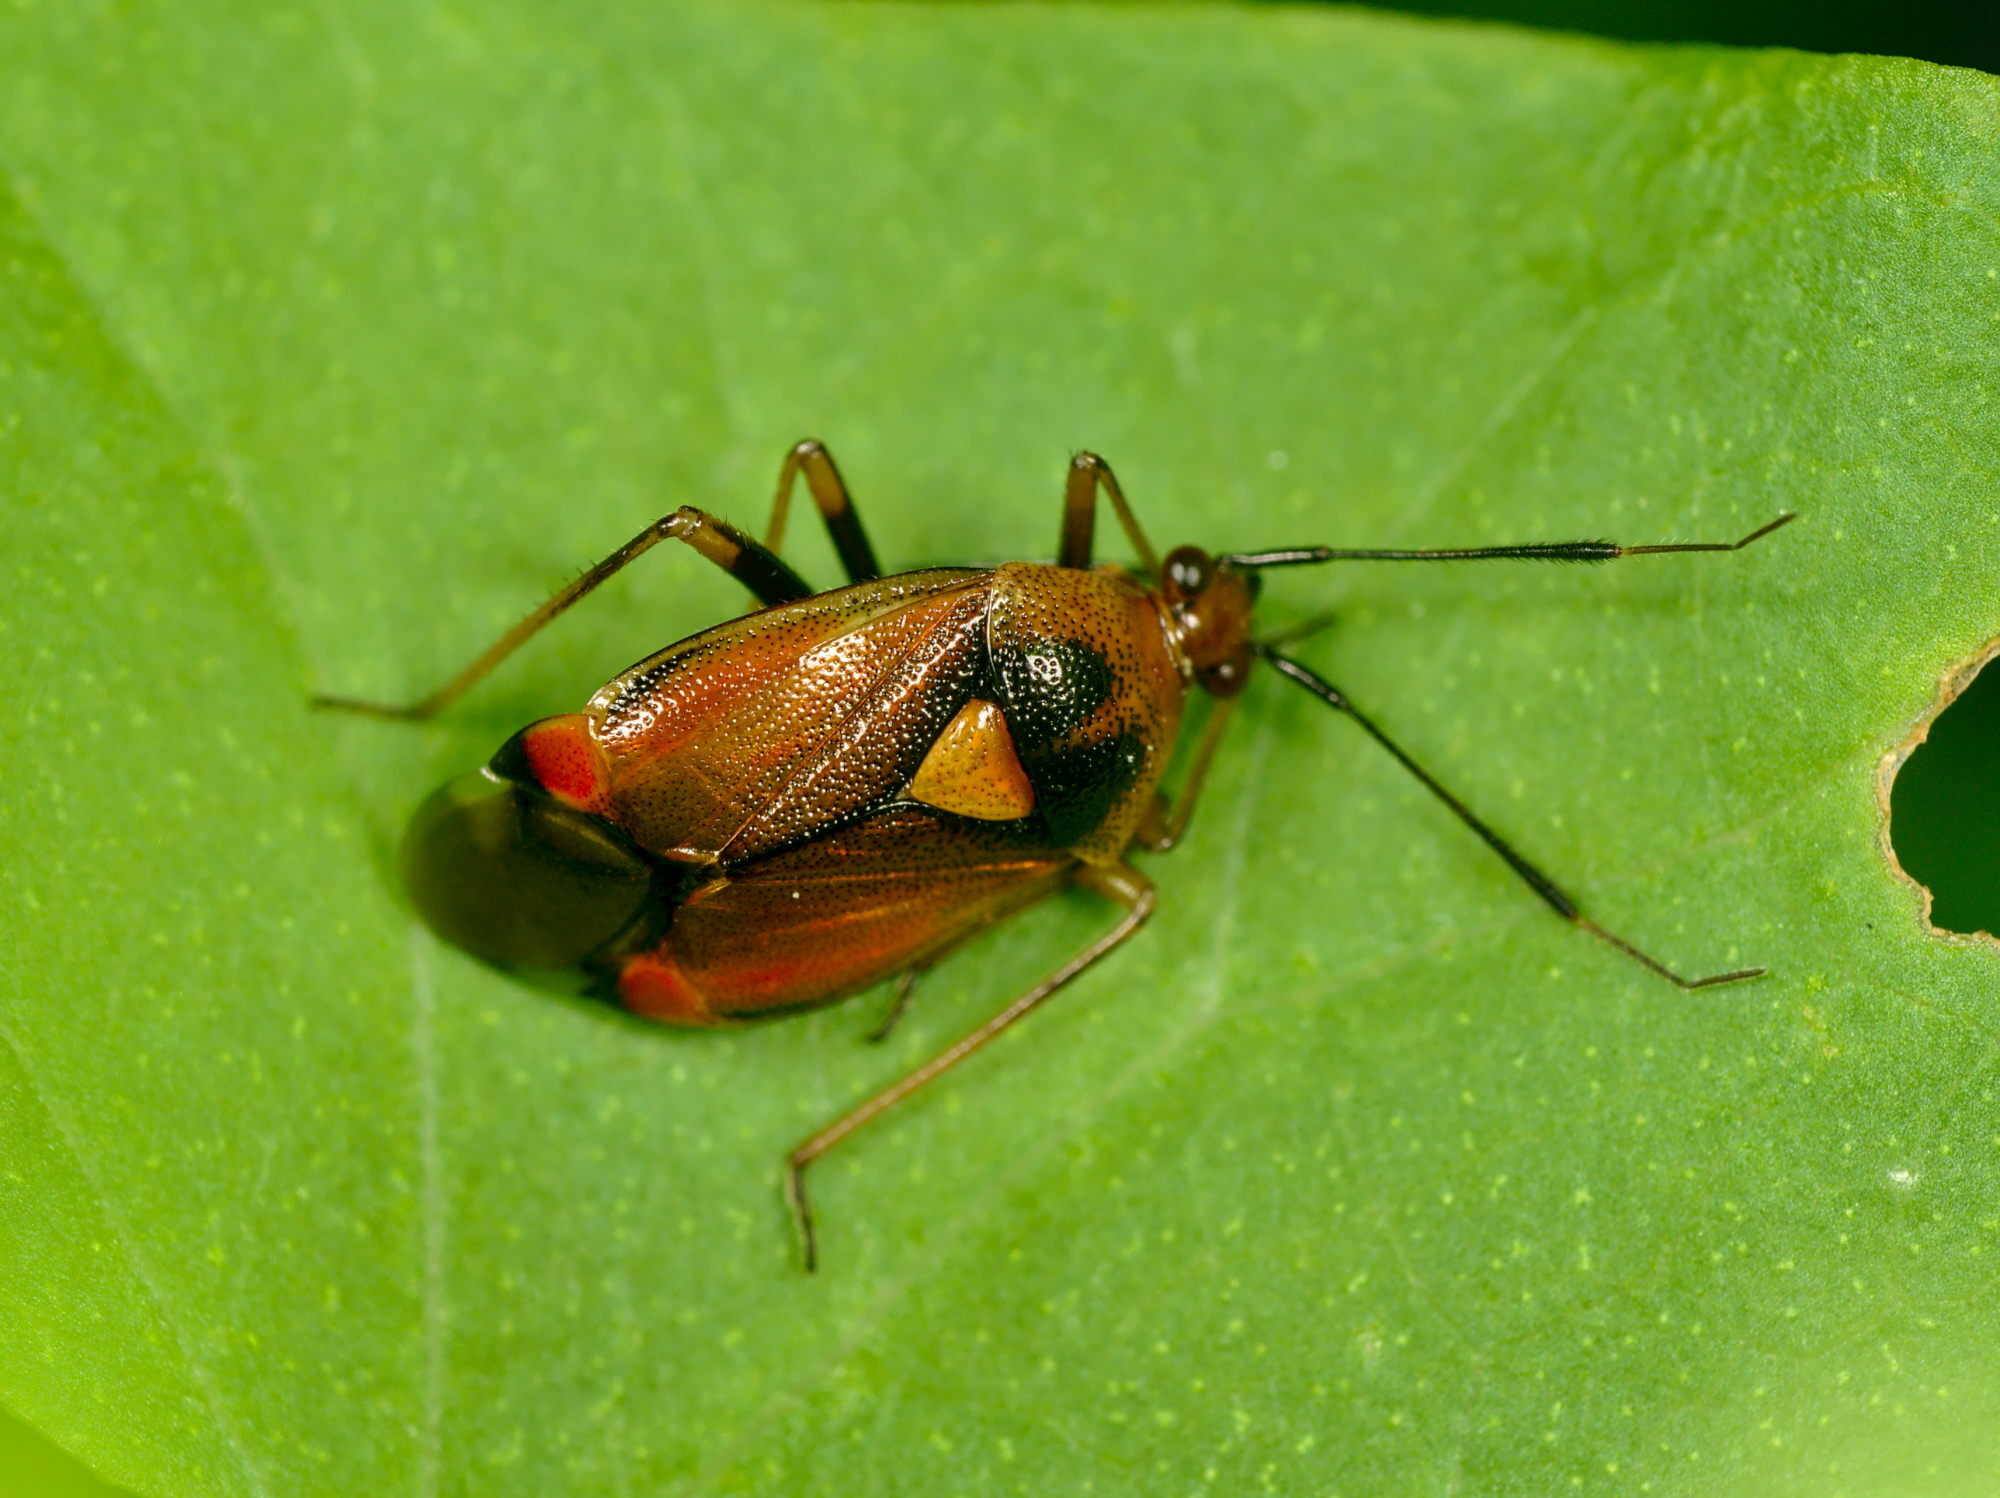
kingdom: Animalia
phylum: Arthropoda
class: Insecta
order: Hemiptera
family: Miridae
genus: Deraeocoris
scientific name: Deraeocoris ruber
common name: Plant bug
